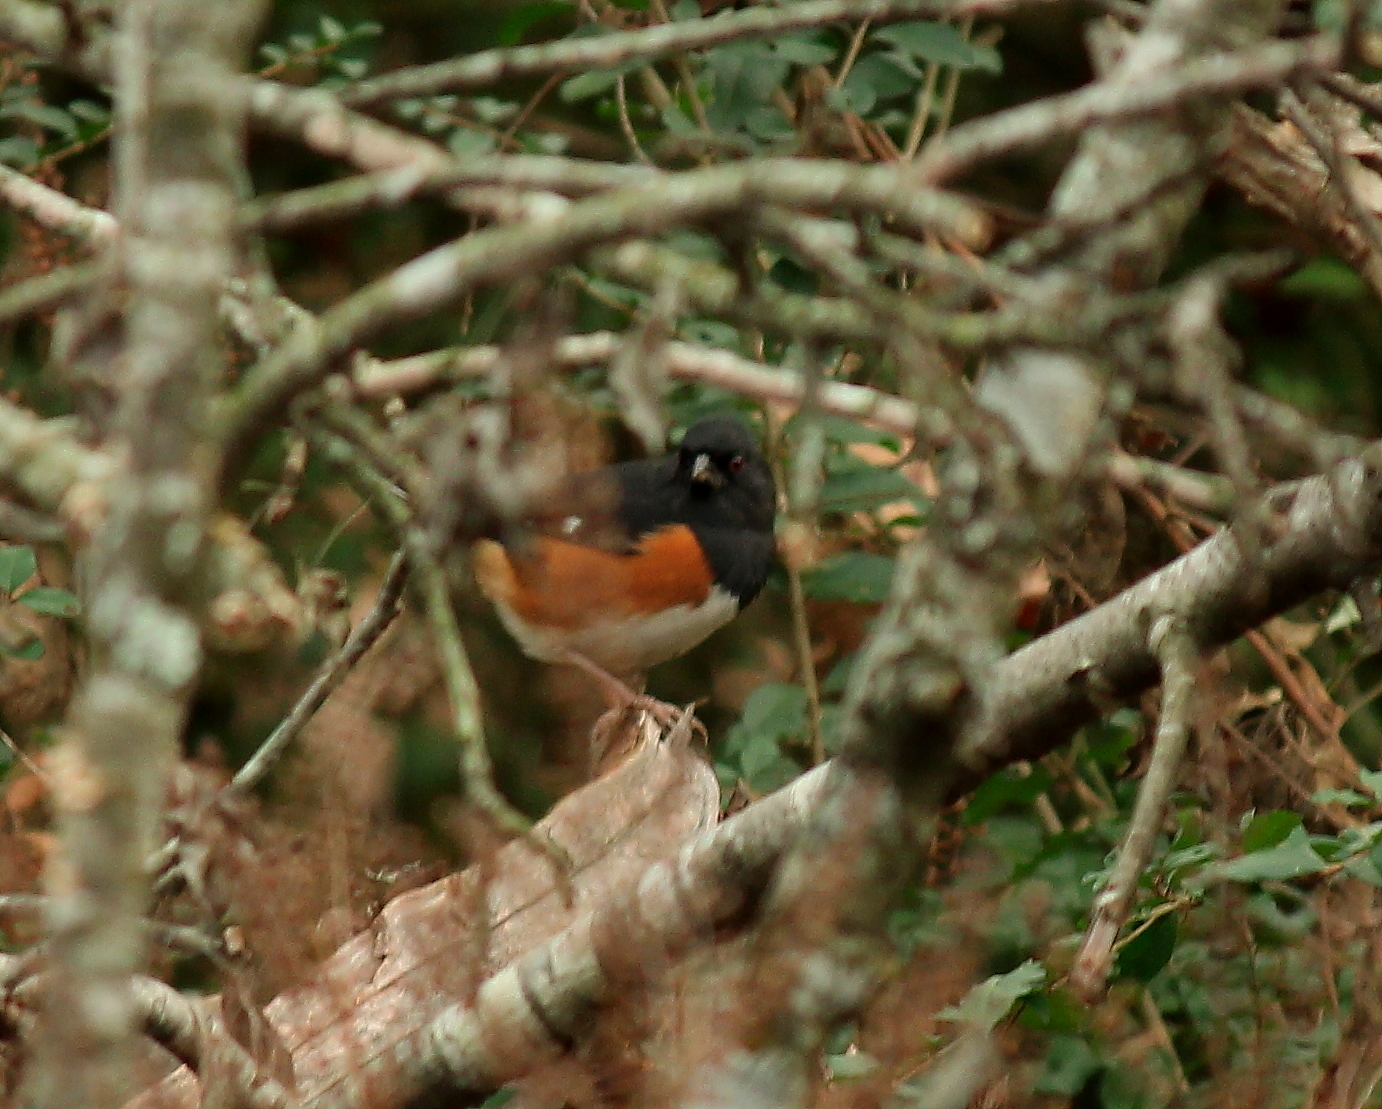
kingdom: Animalia
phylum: Chordata
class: Aves
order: Passeriformes
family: Passerellidae
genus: Pipilo
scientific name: Pipilo erythrophthalmus
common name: Eastern towhee
